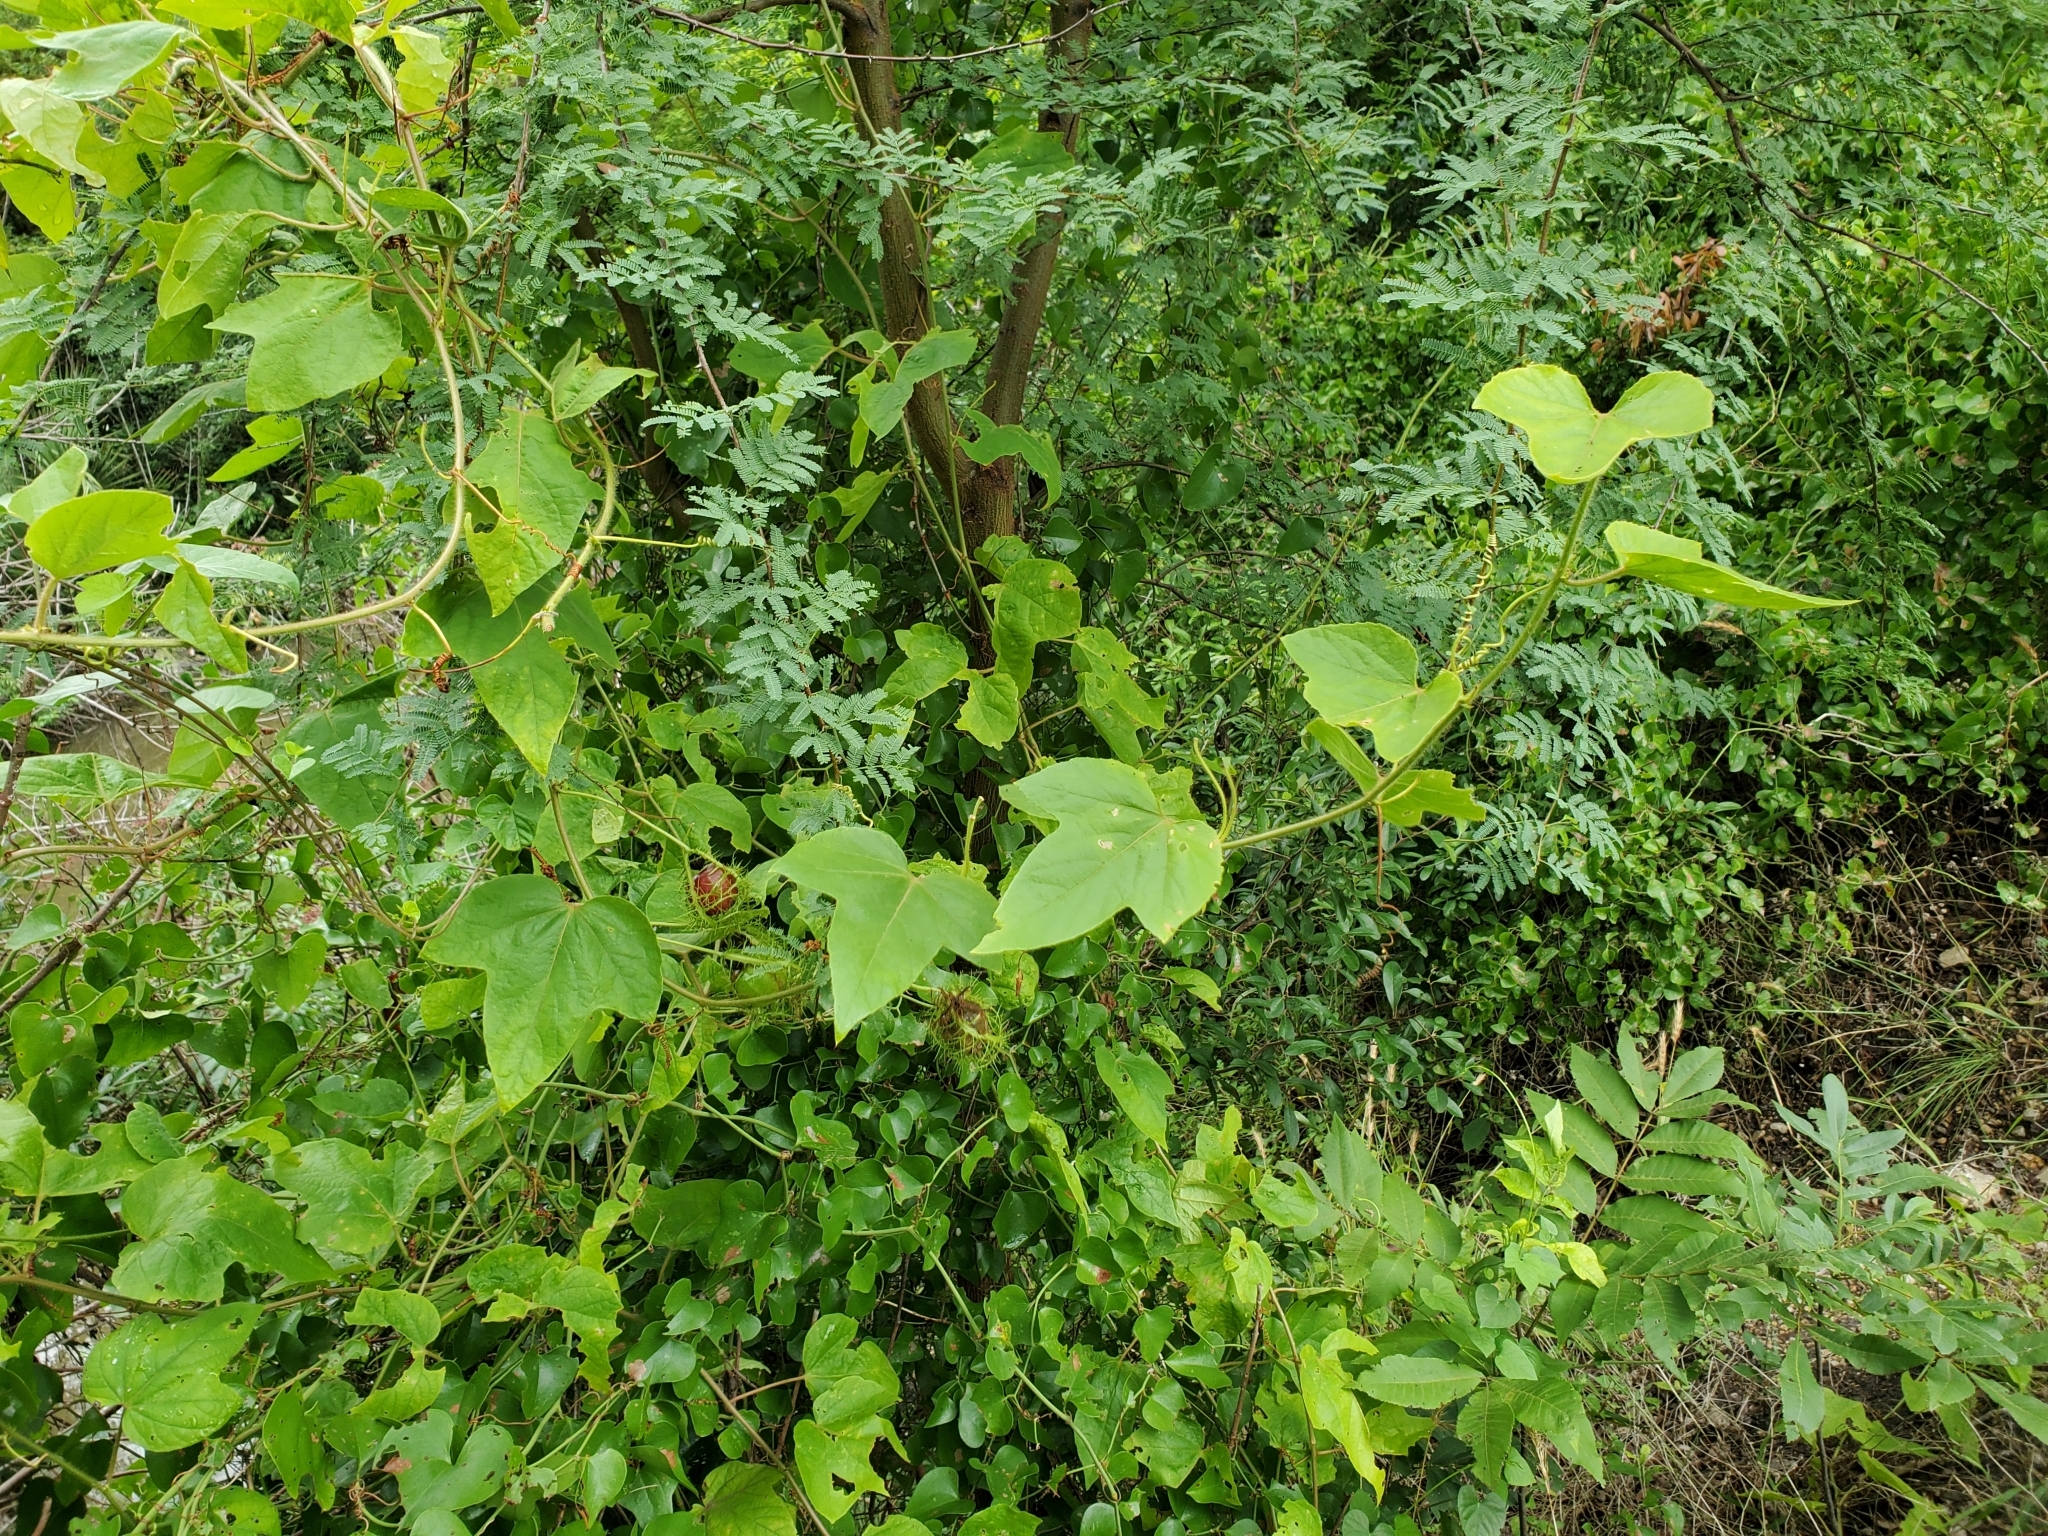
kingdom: Plantae
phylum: Tracheophyta
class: Magnoliopsida
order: Malpighiales
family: Passifloraceae
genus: Passiflora
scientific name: Passiflora
